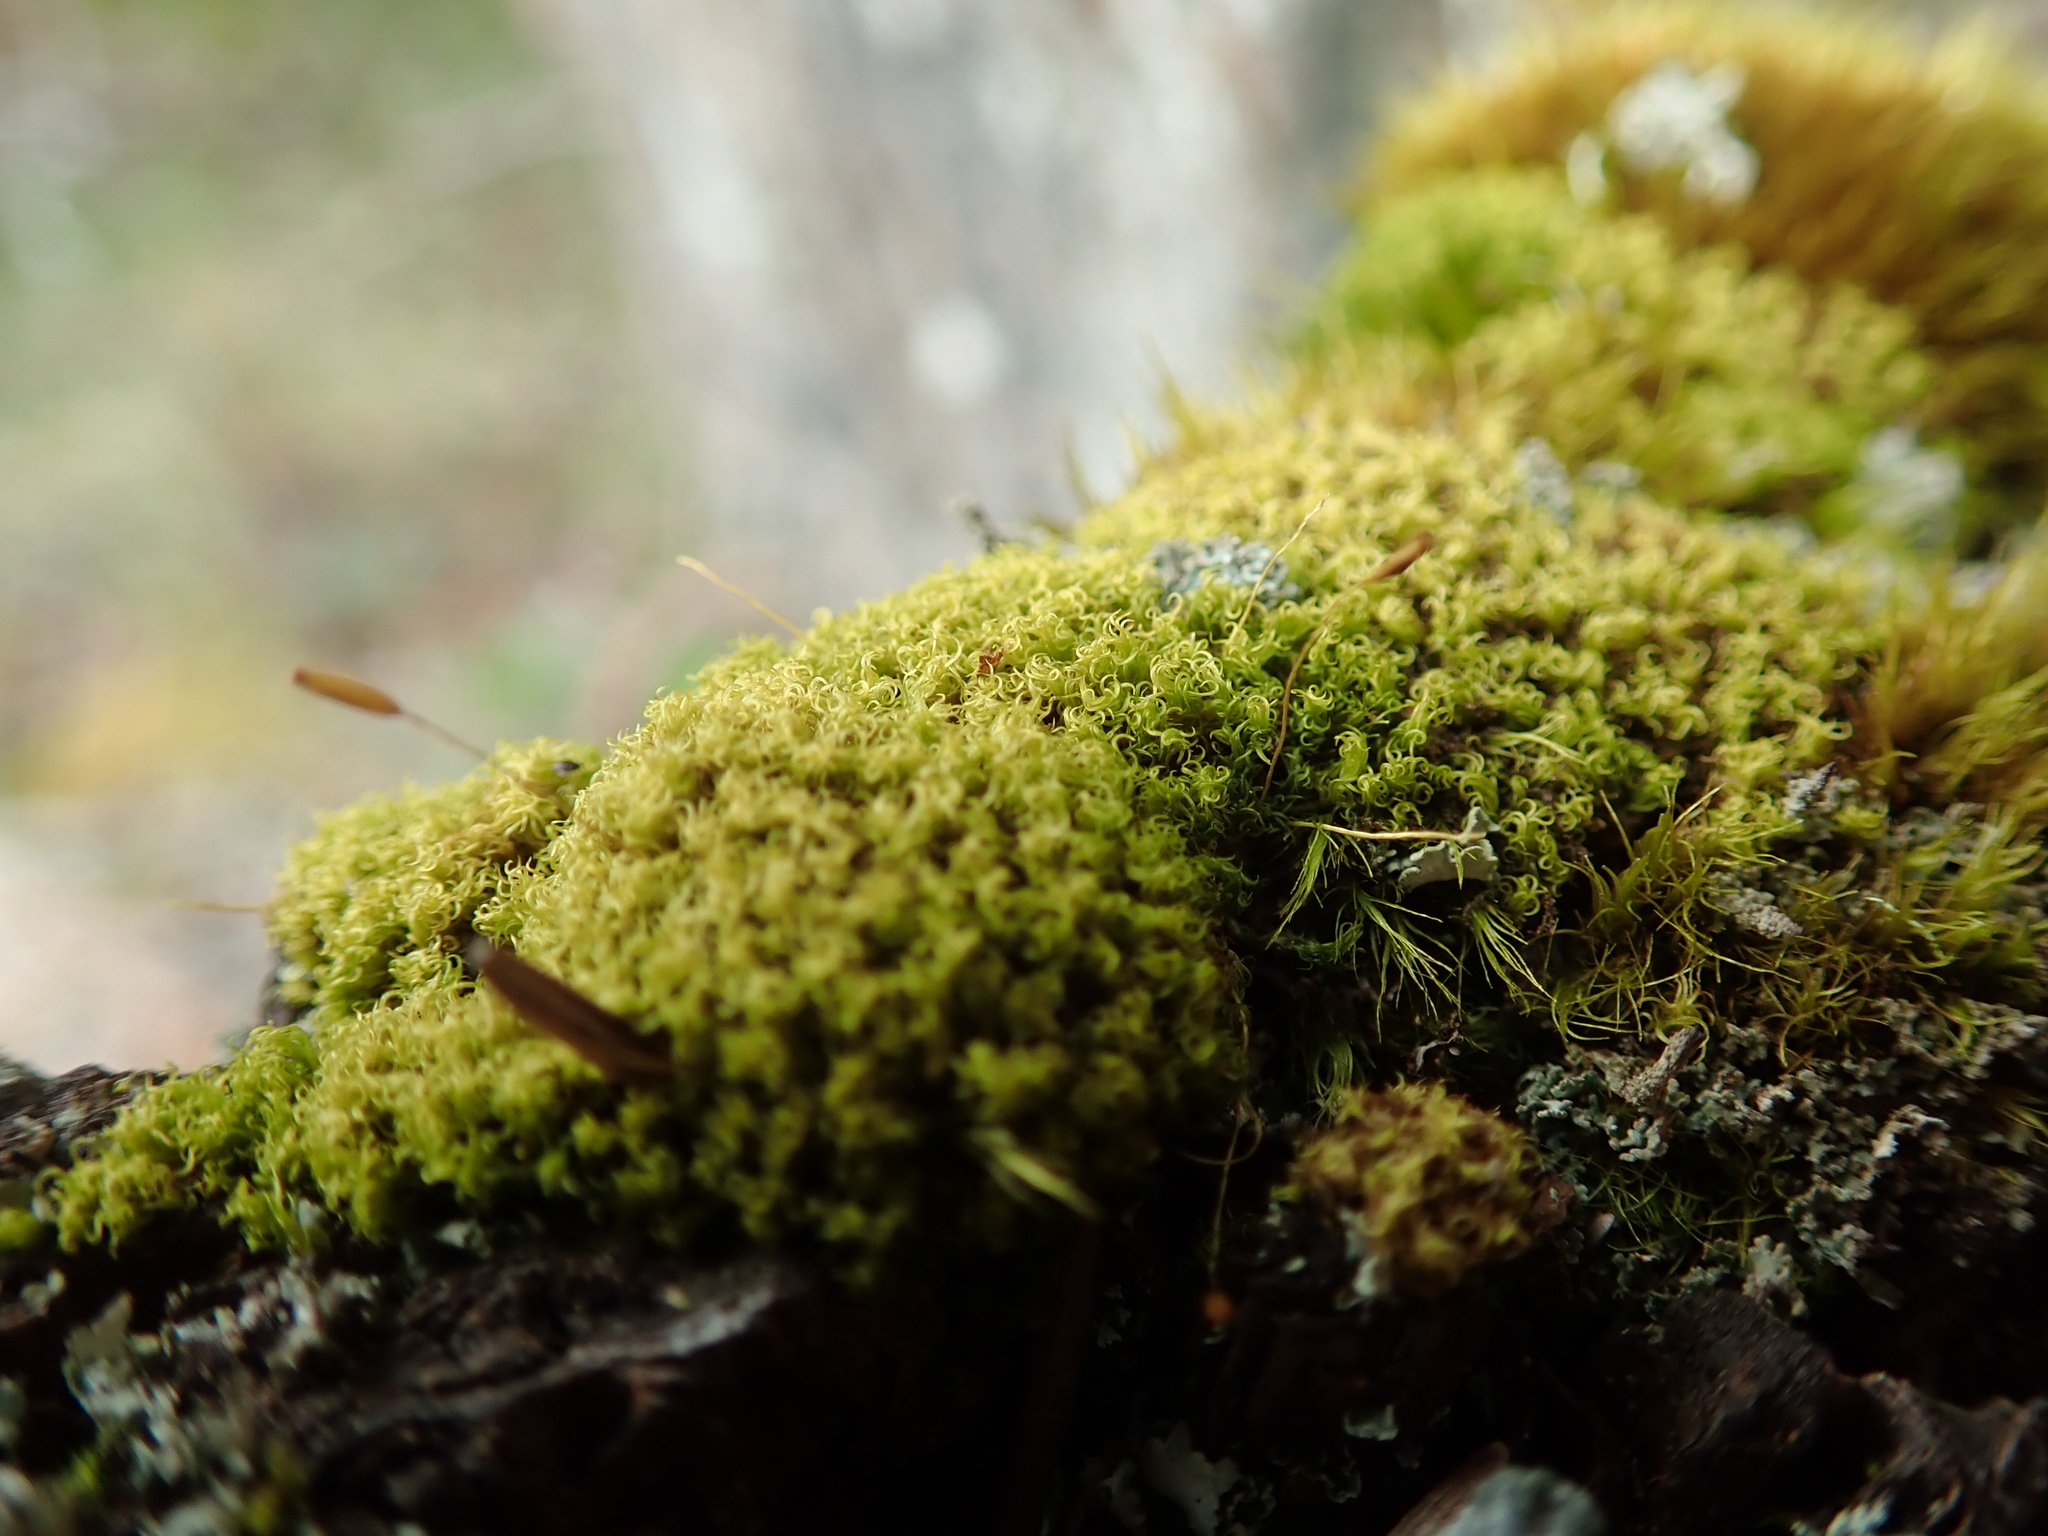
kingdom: Plantae
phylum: Bryophyta
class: Bryopsida
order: Dicranales
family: Rhabdoweisiaceae
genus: Dicranoweisia
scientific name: Dicranoweisia cirrata
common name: Common pincushion
